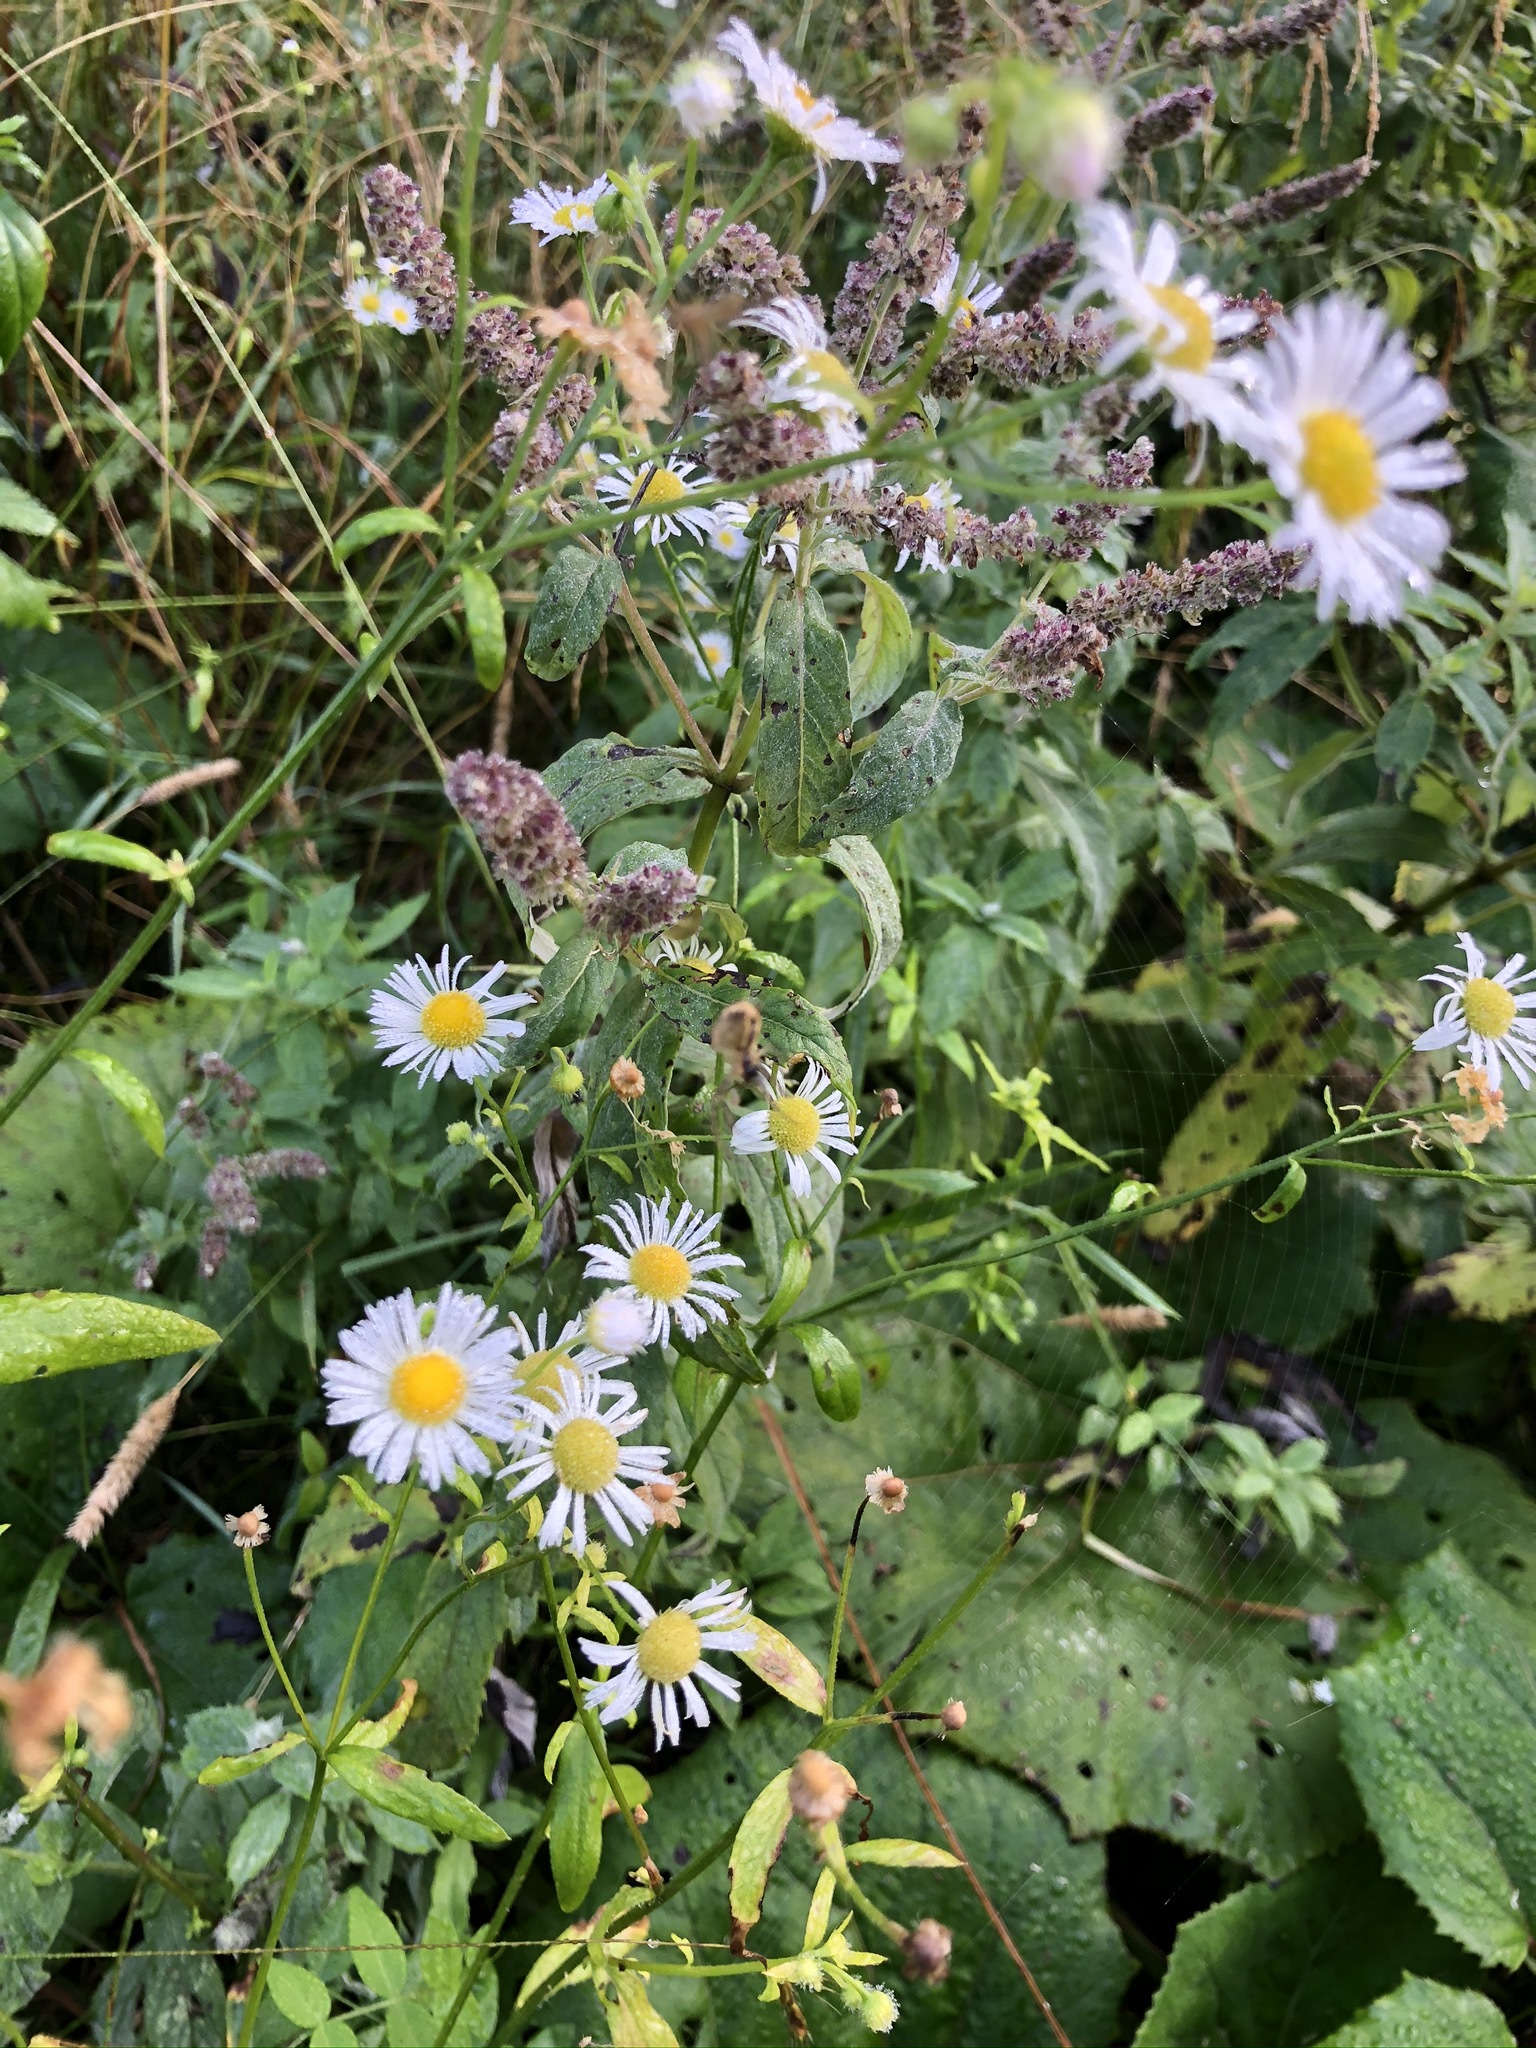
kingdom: Plantae
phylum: Tracheophyta
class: Magnoliopsida
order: Asterales
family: Asteraceae
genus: Erigeron
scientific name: Erigeron annuus
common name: Tall fleabane
